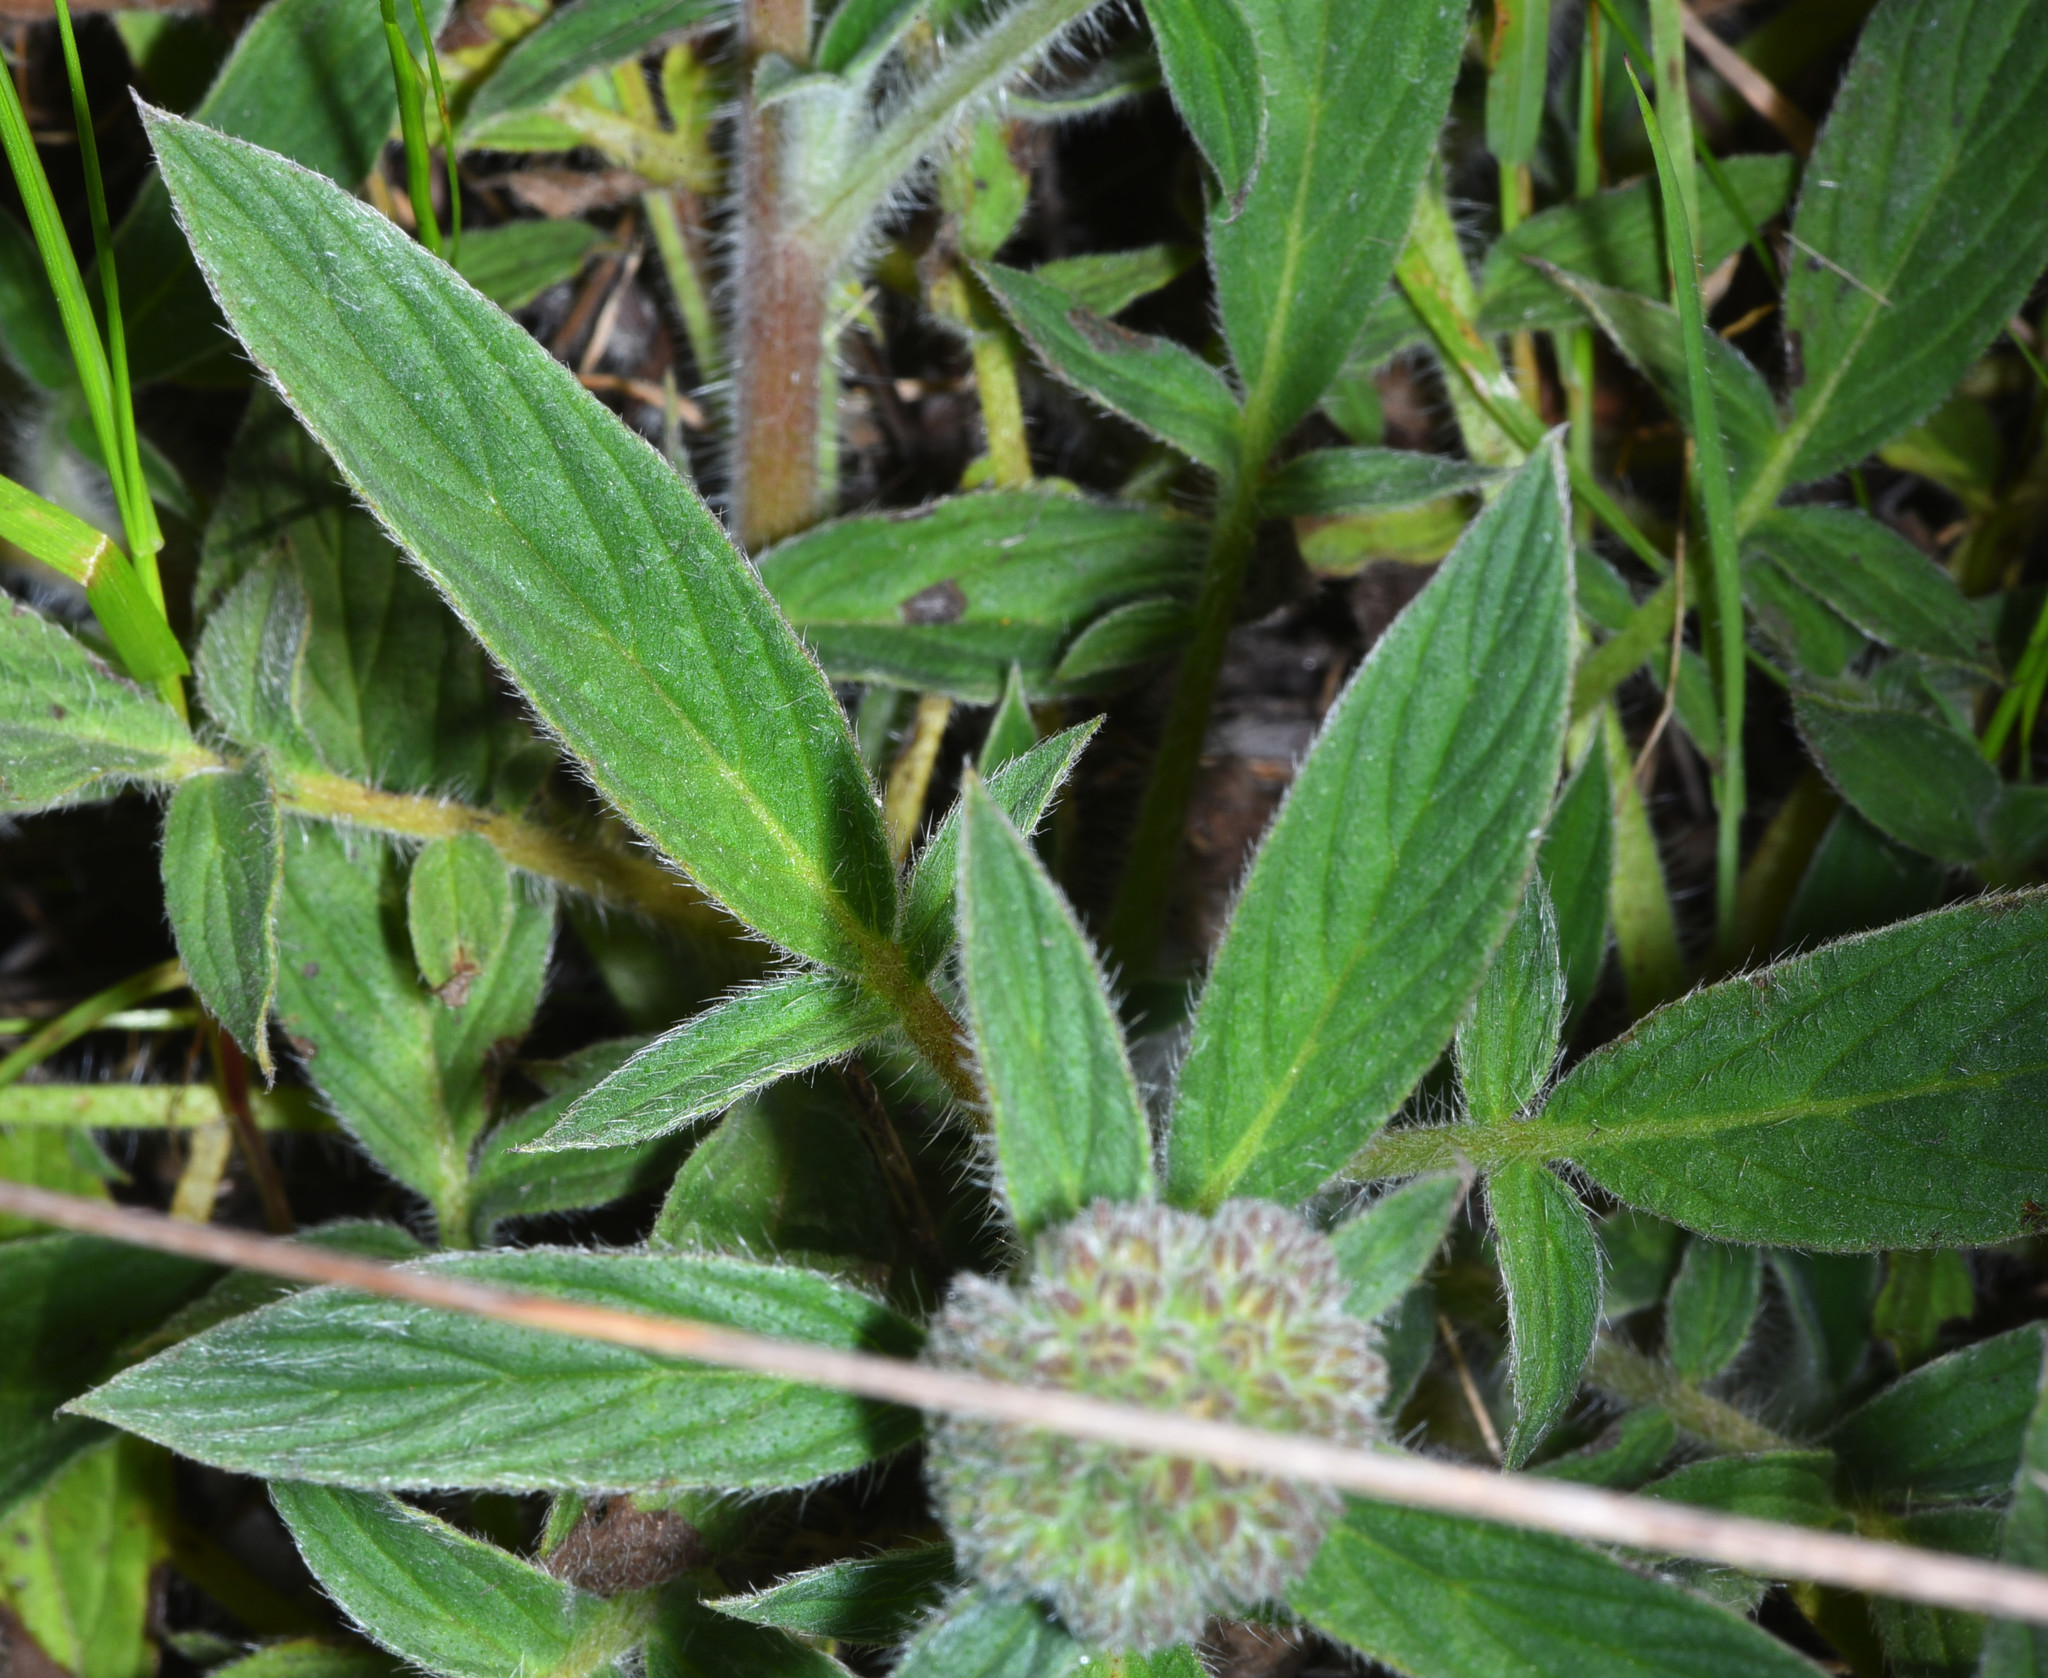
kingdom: Plantae
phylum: Tracheophyta
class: Magnoliopsida
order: Boraginales
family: Hydrophyllaceae
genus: Phacelia
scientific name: Phacelia californica
